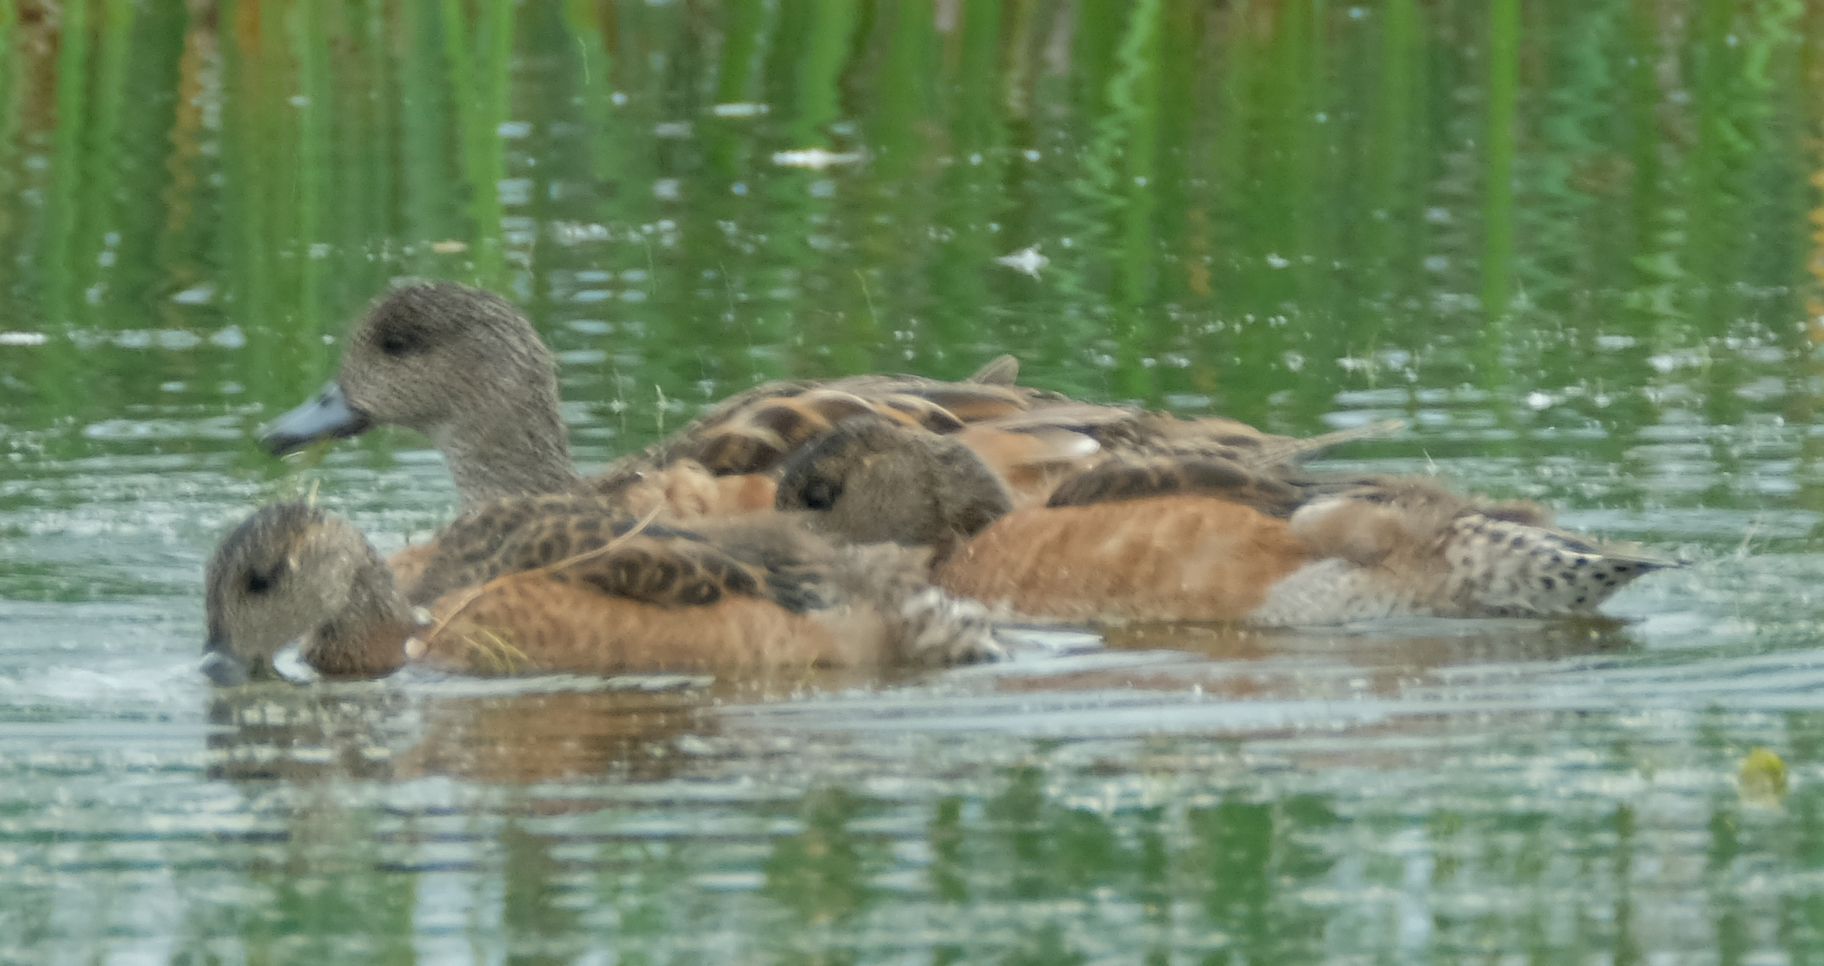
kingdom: Animalia
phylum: Chordata
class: Aves
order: Anseriformes
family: Anatidae
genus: Mareca
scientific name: Mareca americana
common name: American wigeon
